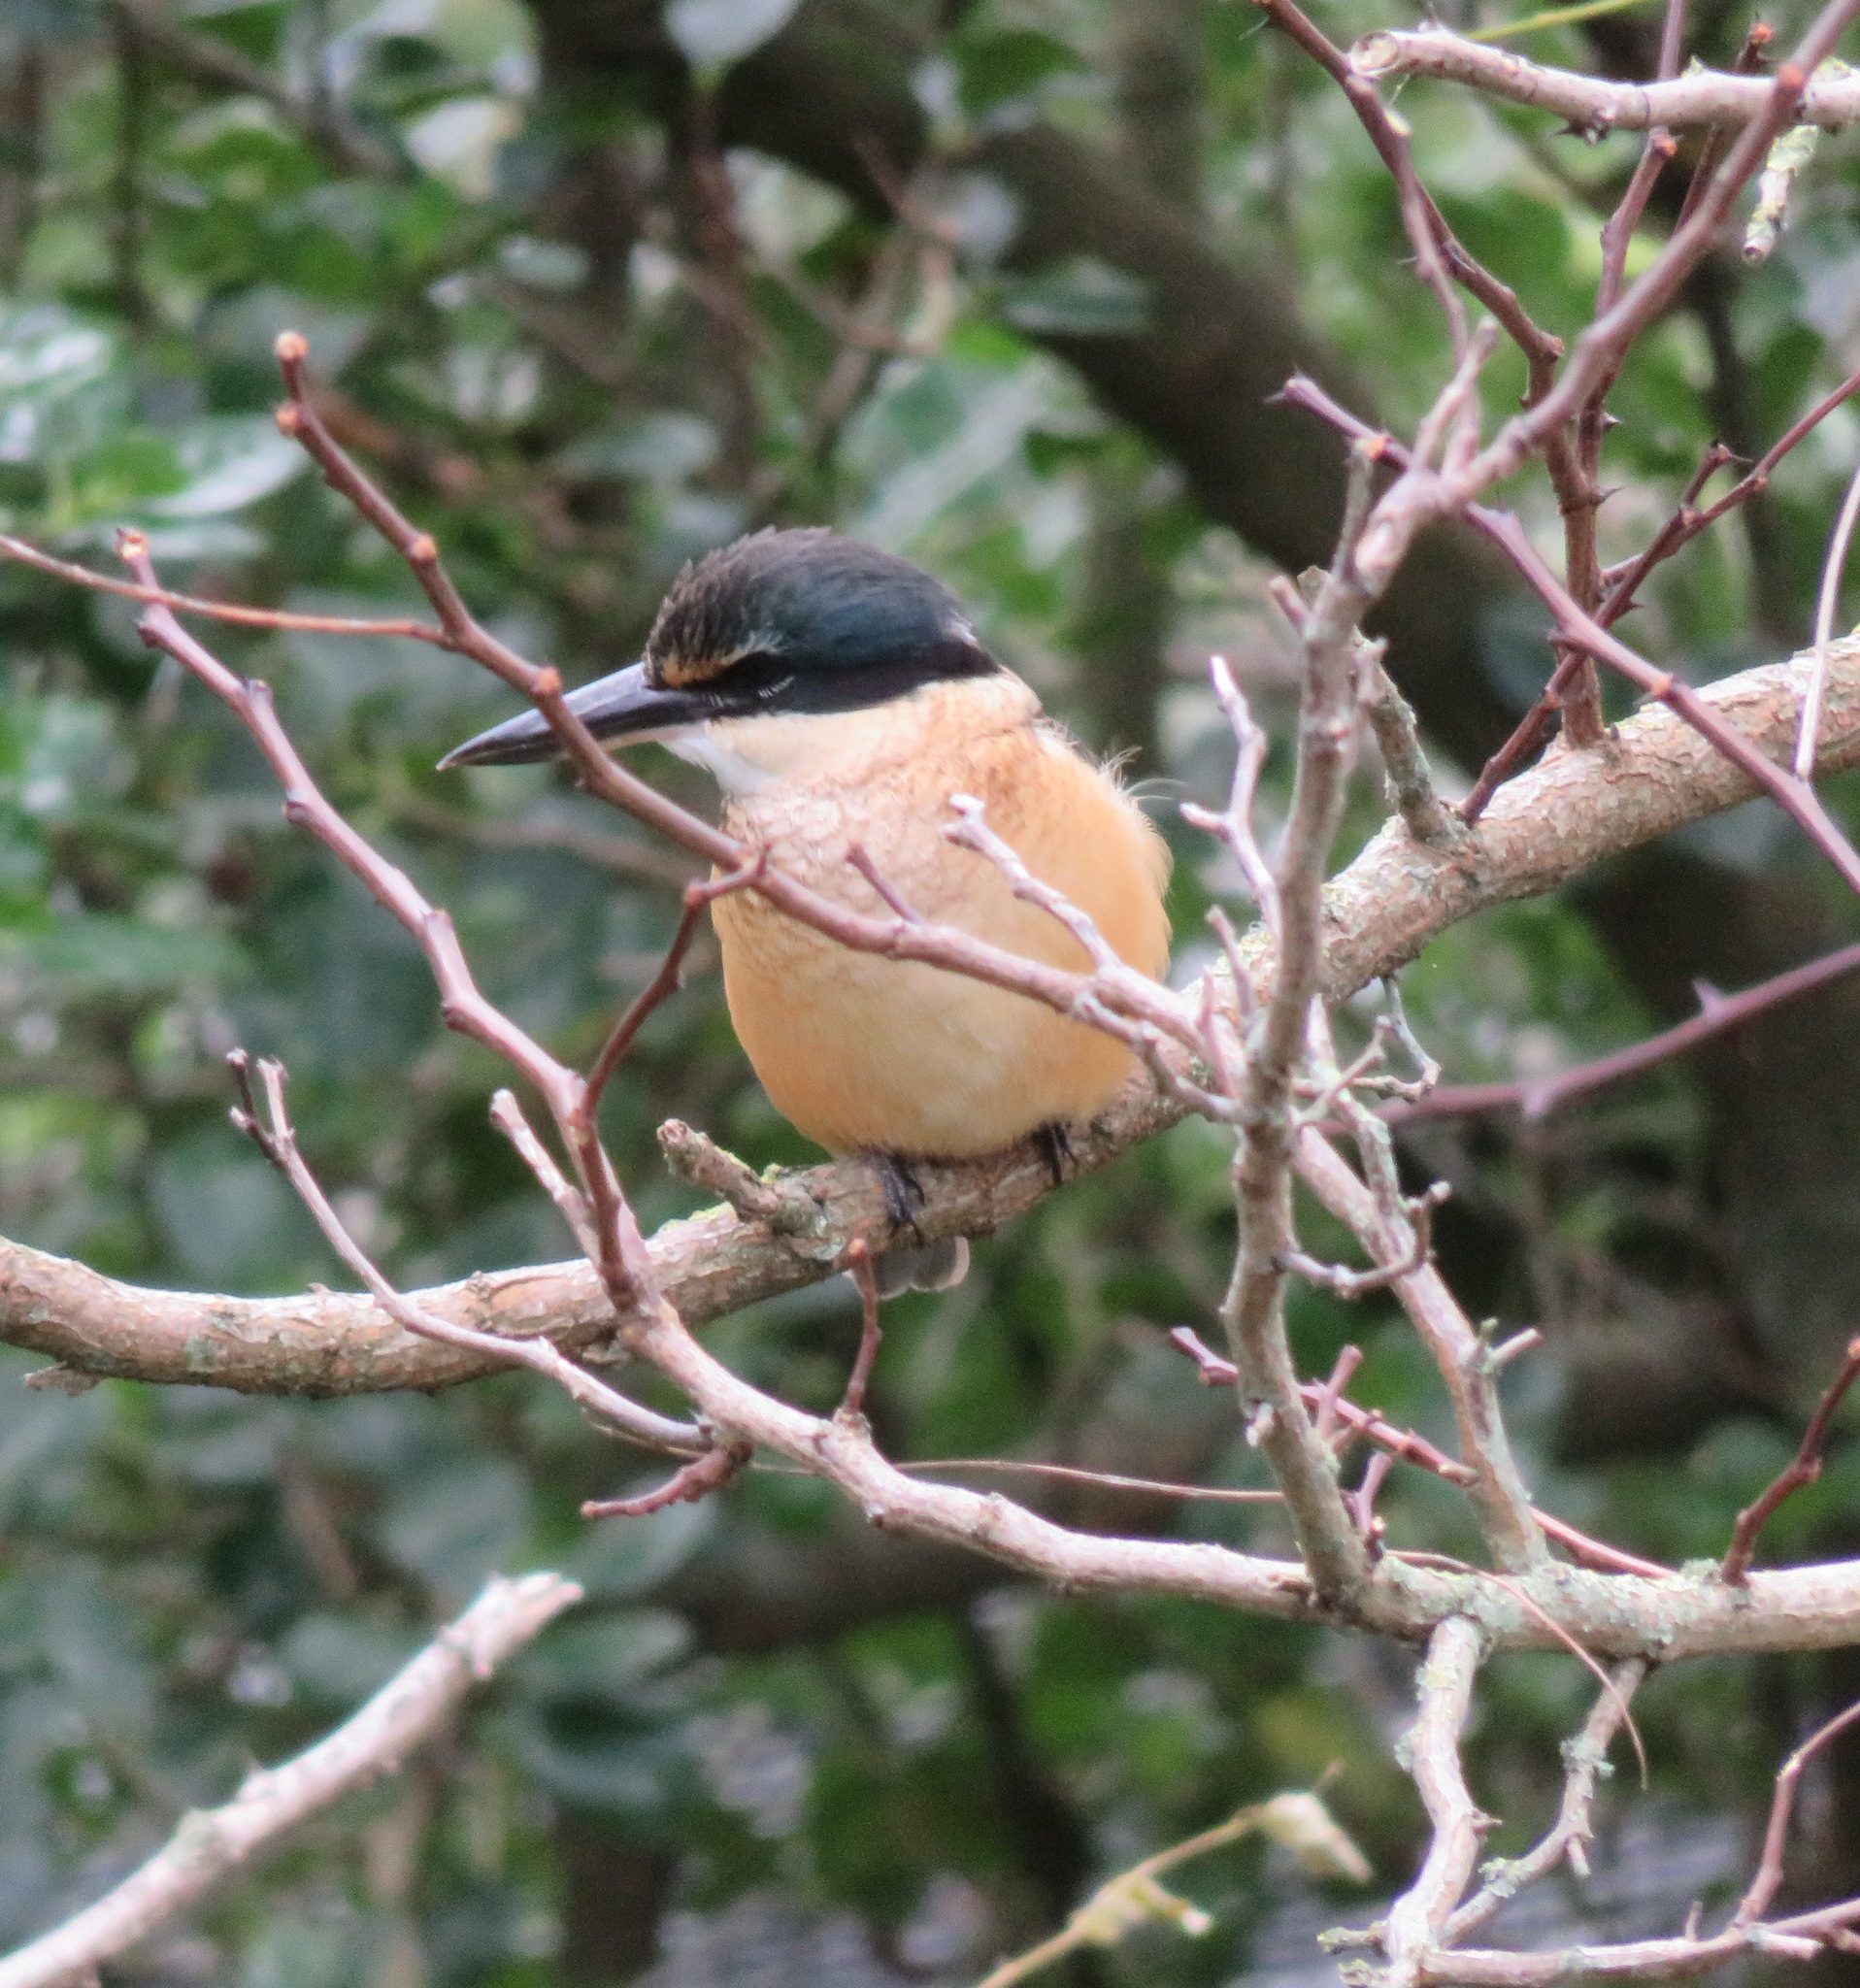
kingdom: Animalia
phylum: Chordata
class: Aves
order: Coraciiformes
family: Alcedinidae
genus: Todiramphus
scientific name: Todiramphus sanctus
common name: Sacred kingfisher
